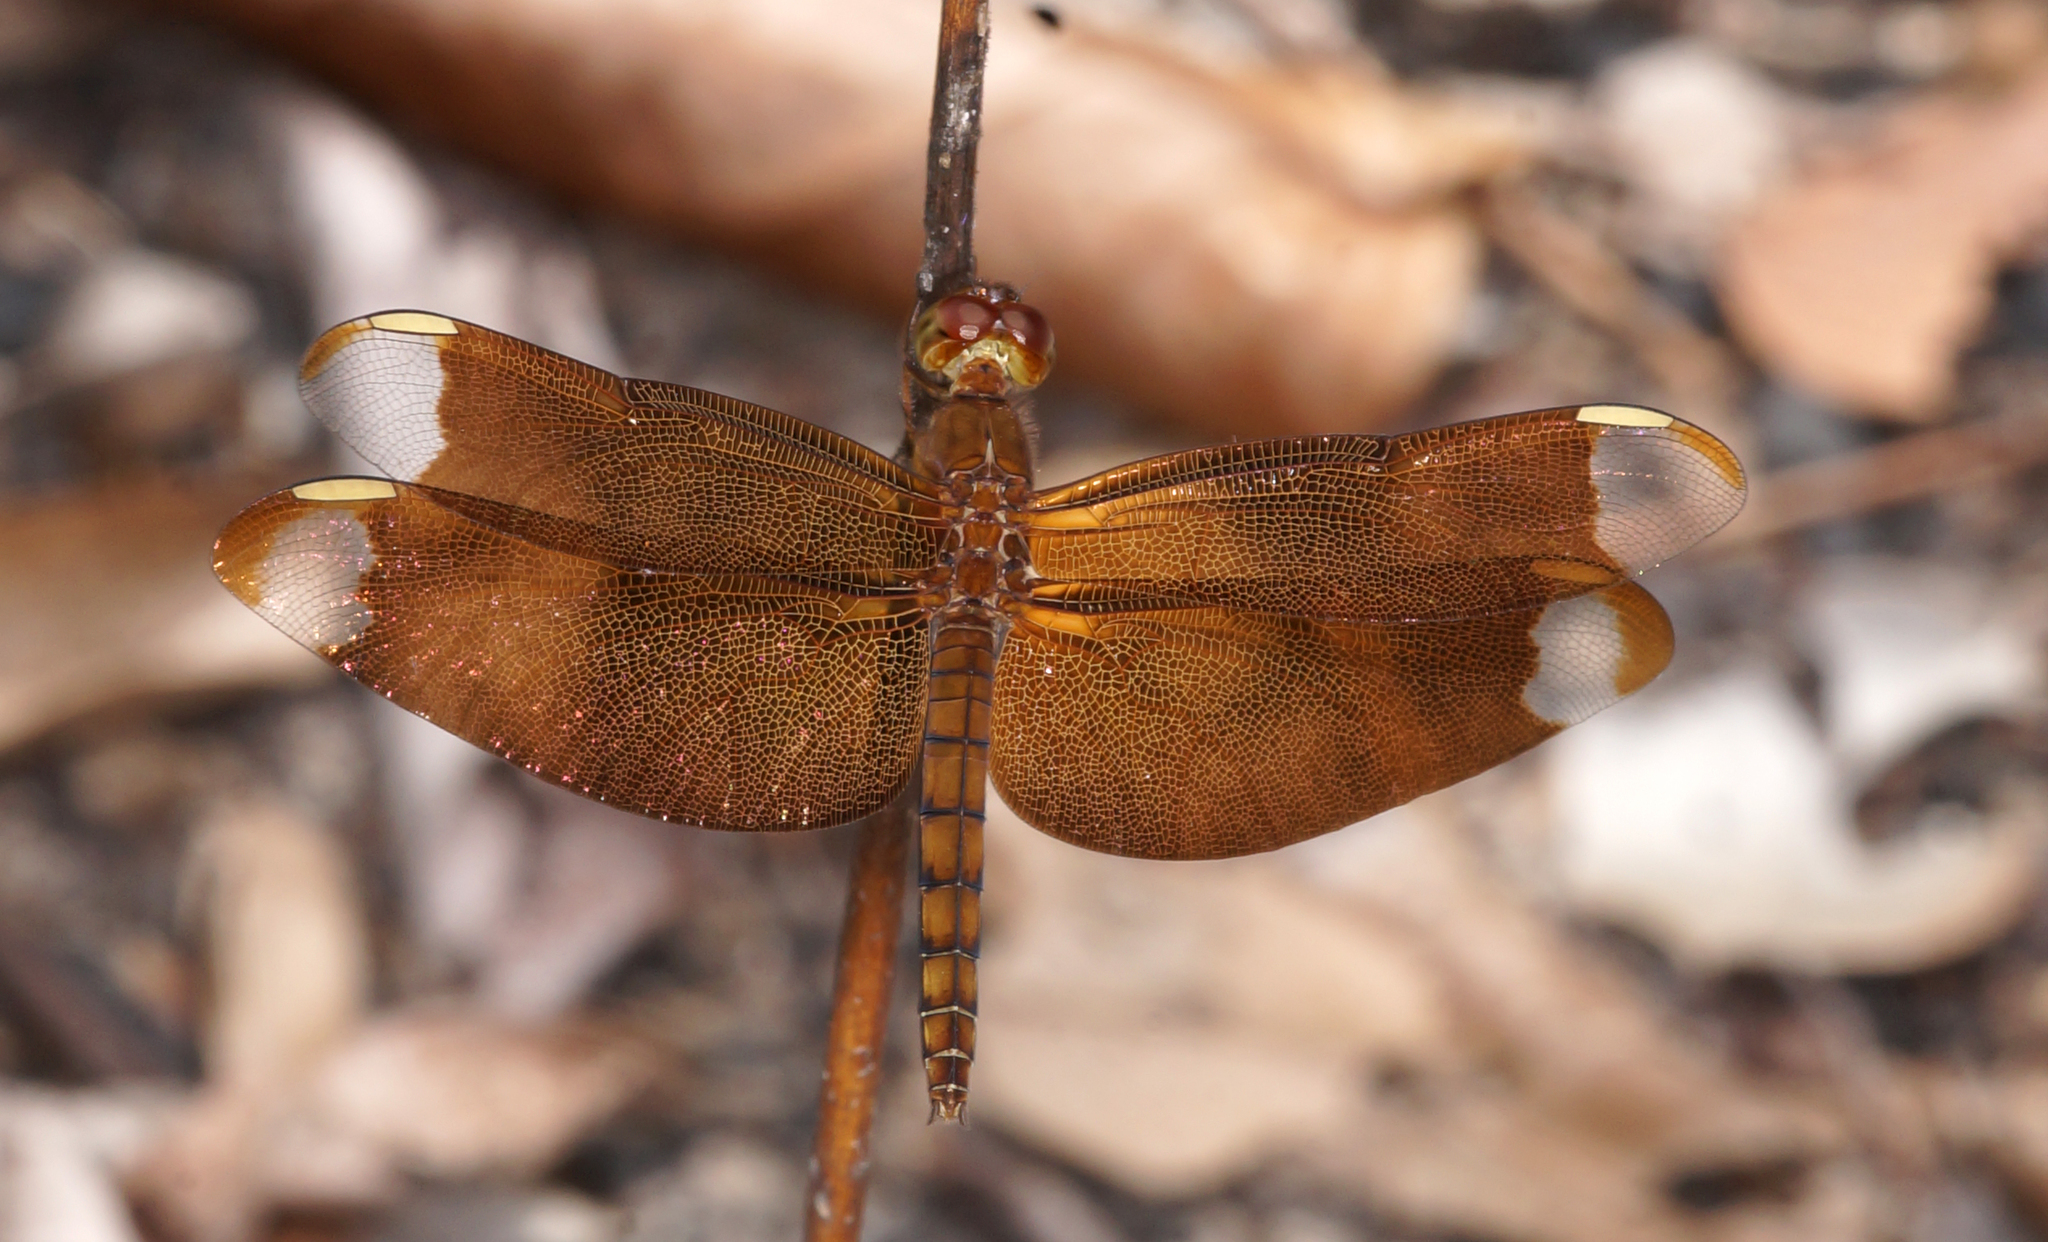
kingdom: Animalia
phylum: Arthropoda
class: Insecta
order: Odonata
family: Libellulidae
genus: Neurothemis
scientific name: Neurothemis fulvia
